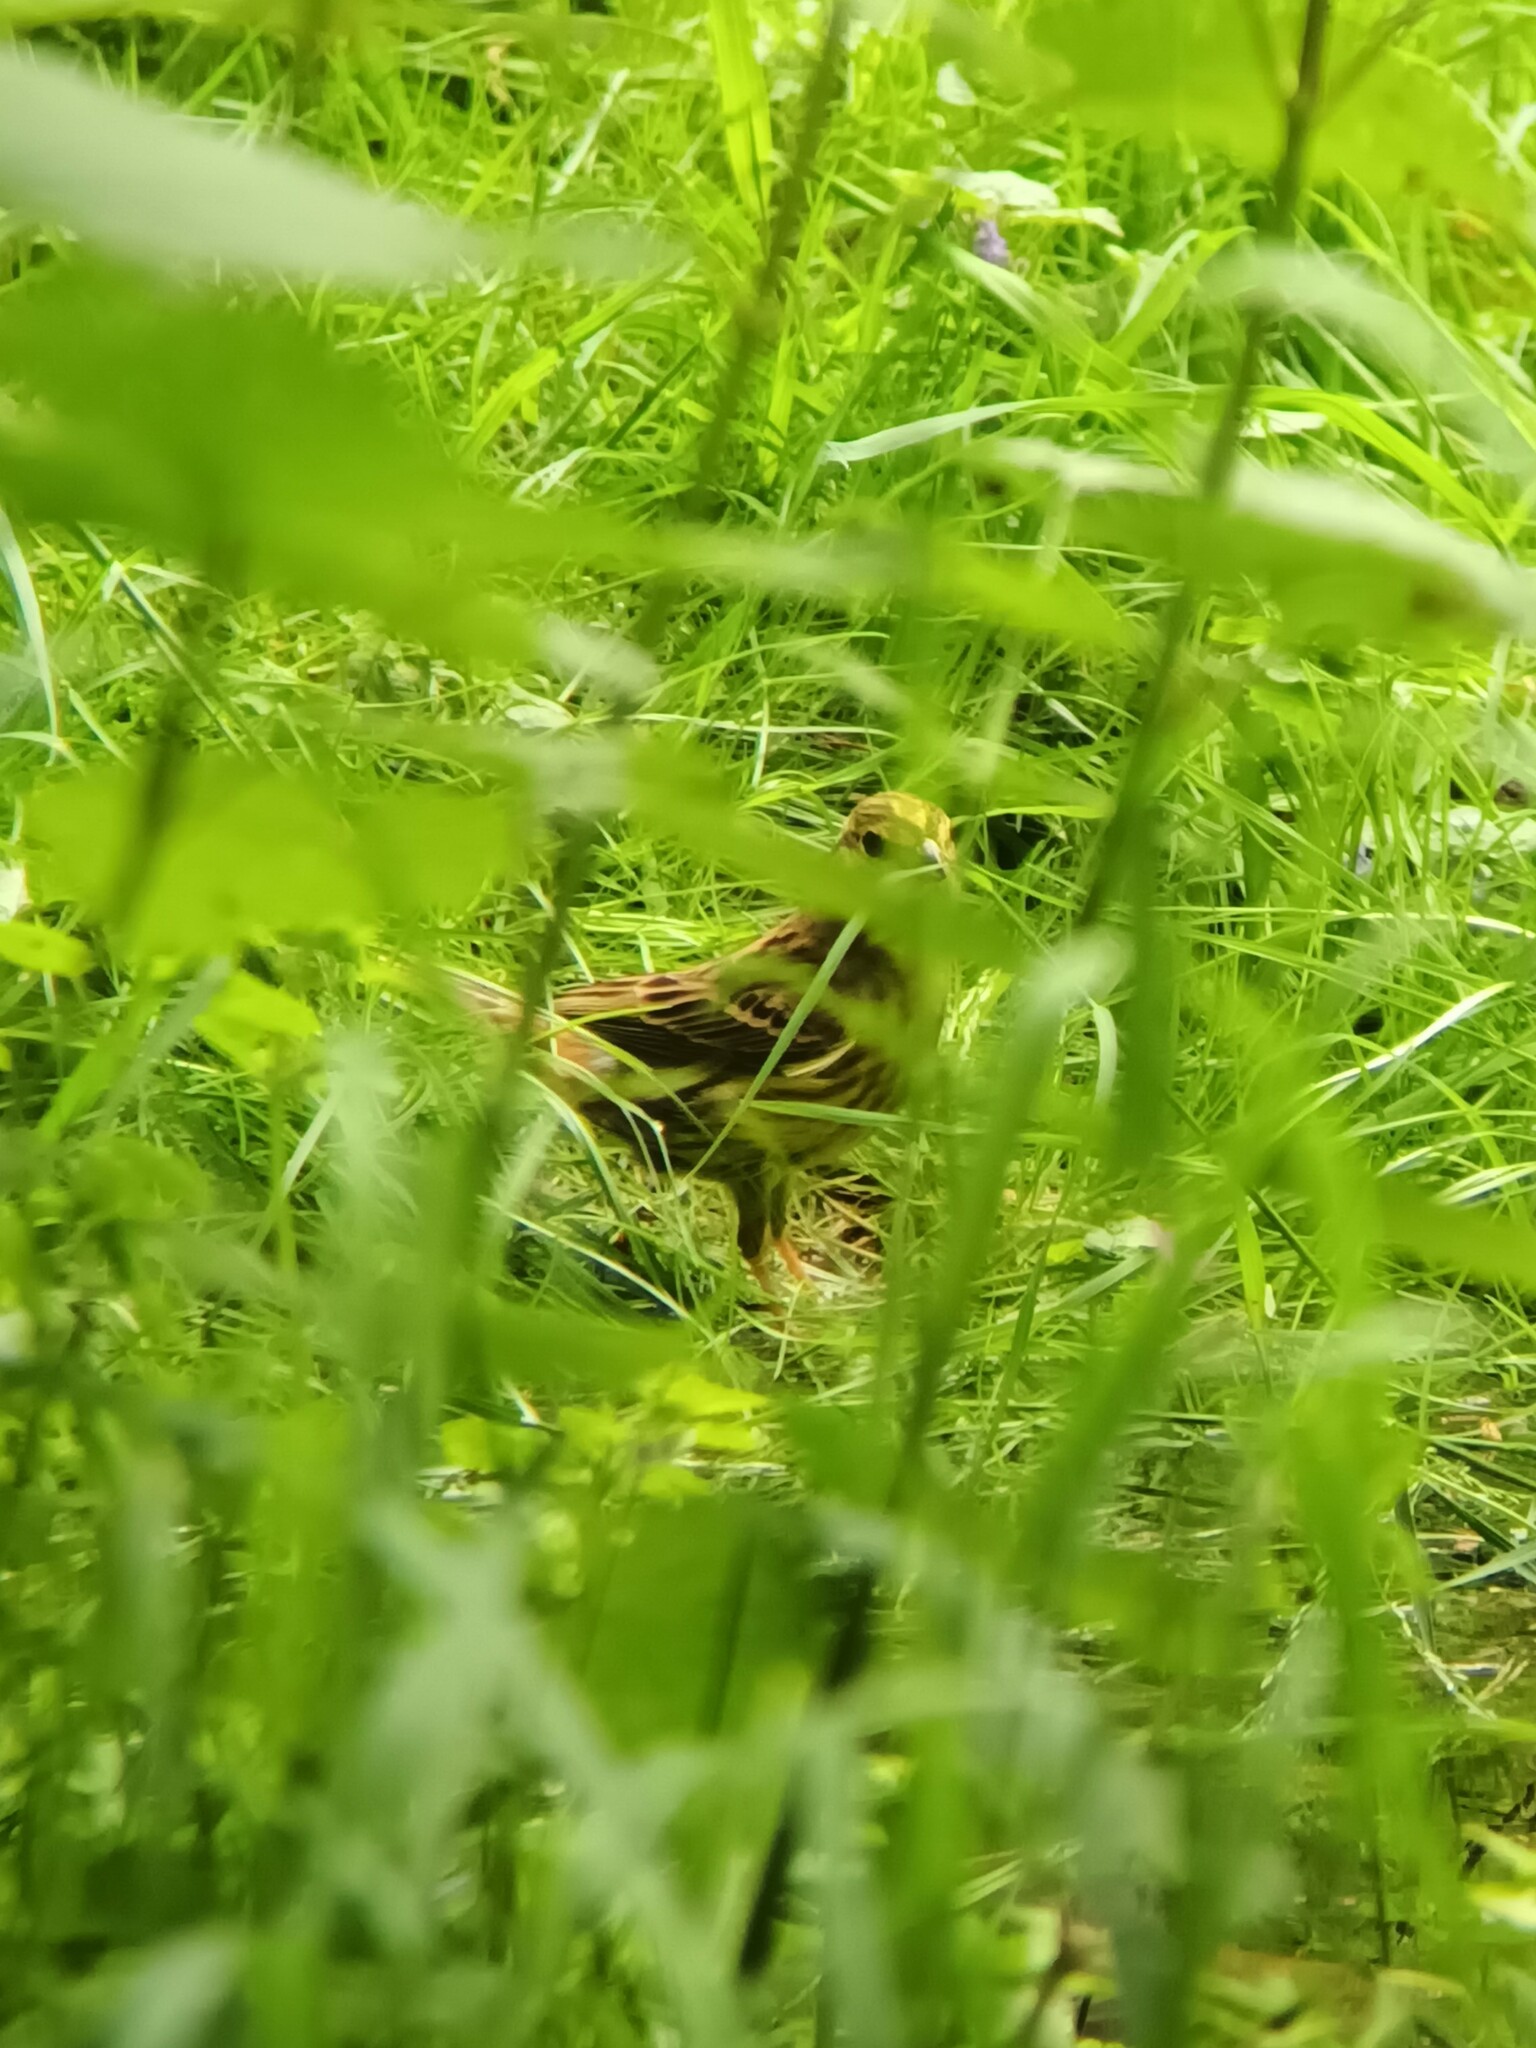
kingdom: Animalia
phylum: Chordata
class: Aves
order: Passeriformes
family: Emberizidae
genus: Emberiza
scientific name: Emberiza citrinella
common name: Yellowhammer
